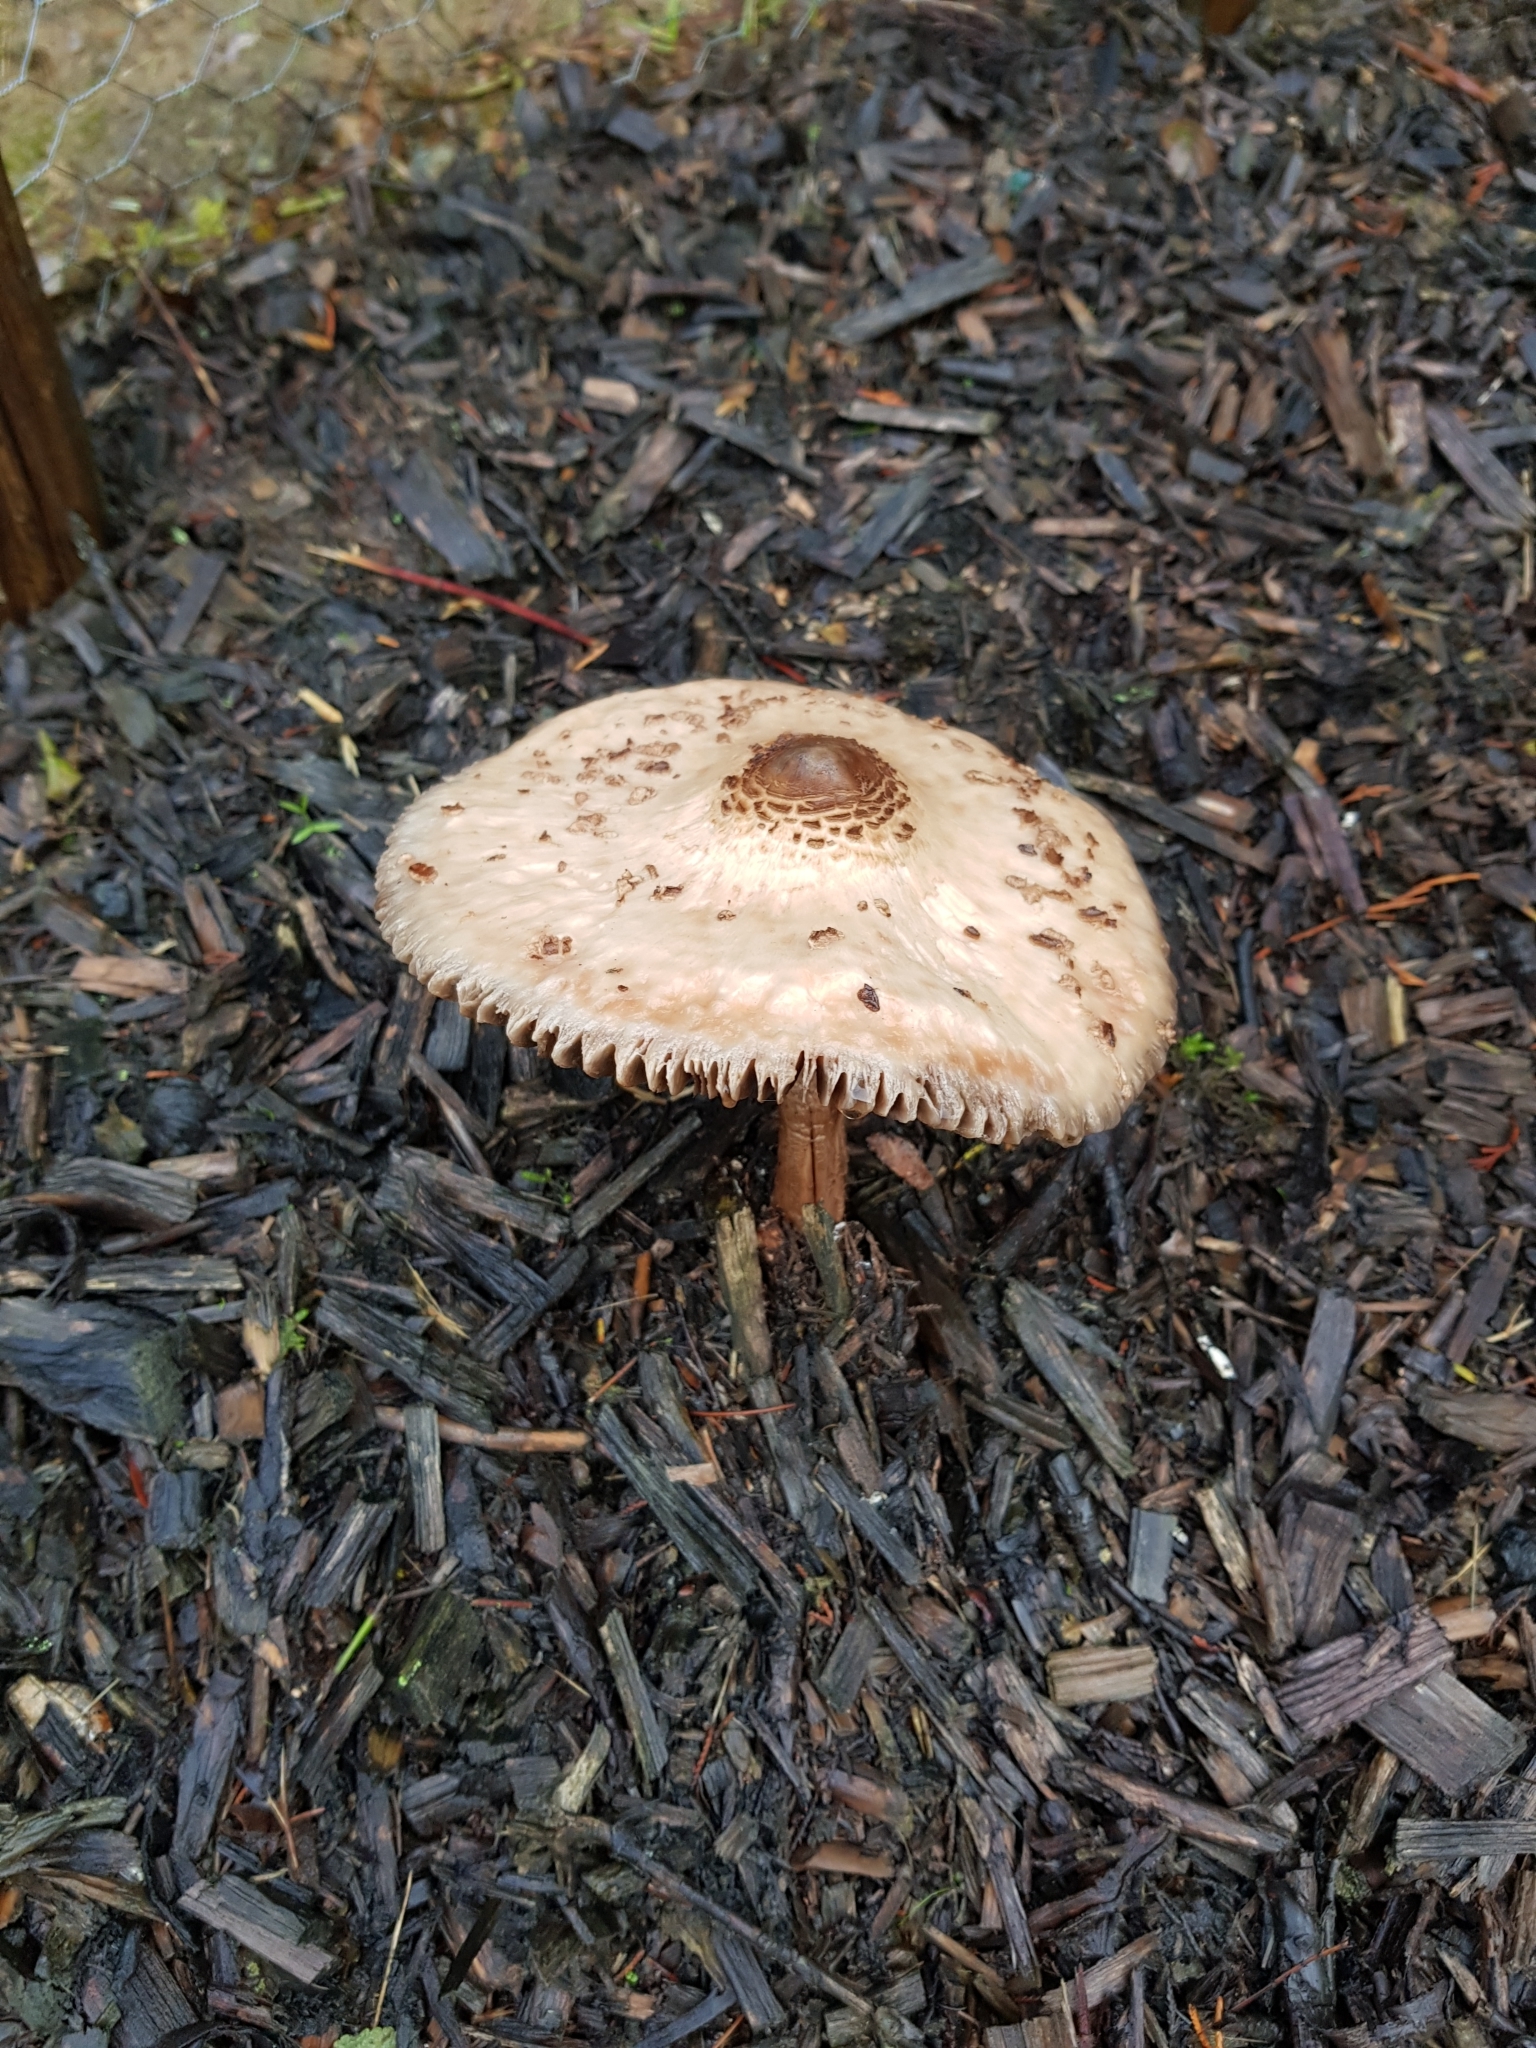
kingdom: Fungi
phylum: Basidiomycota
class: Agaricomycetes
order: Agaricales
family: Agaricaceae
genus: Macrolepiota
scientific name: Macrolepiota procera
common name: Parasol
